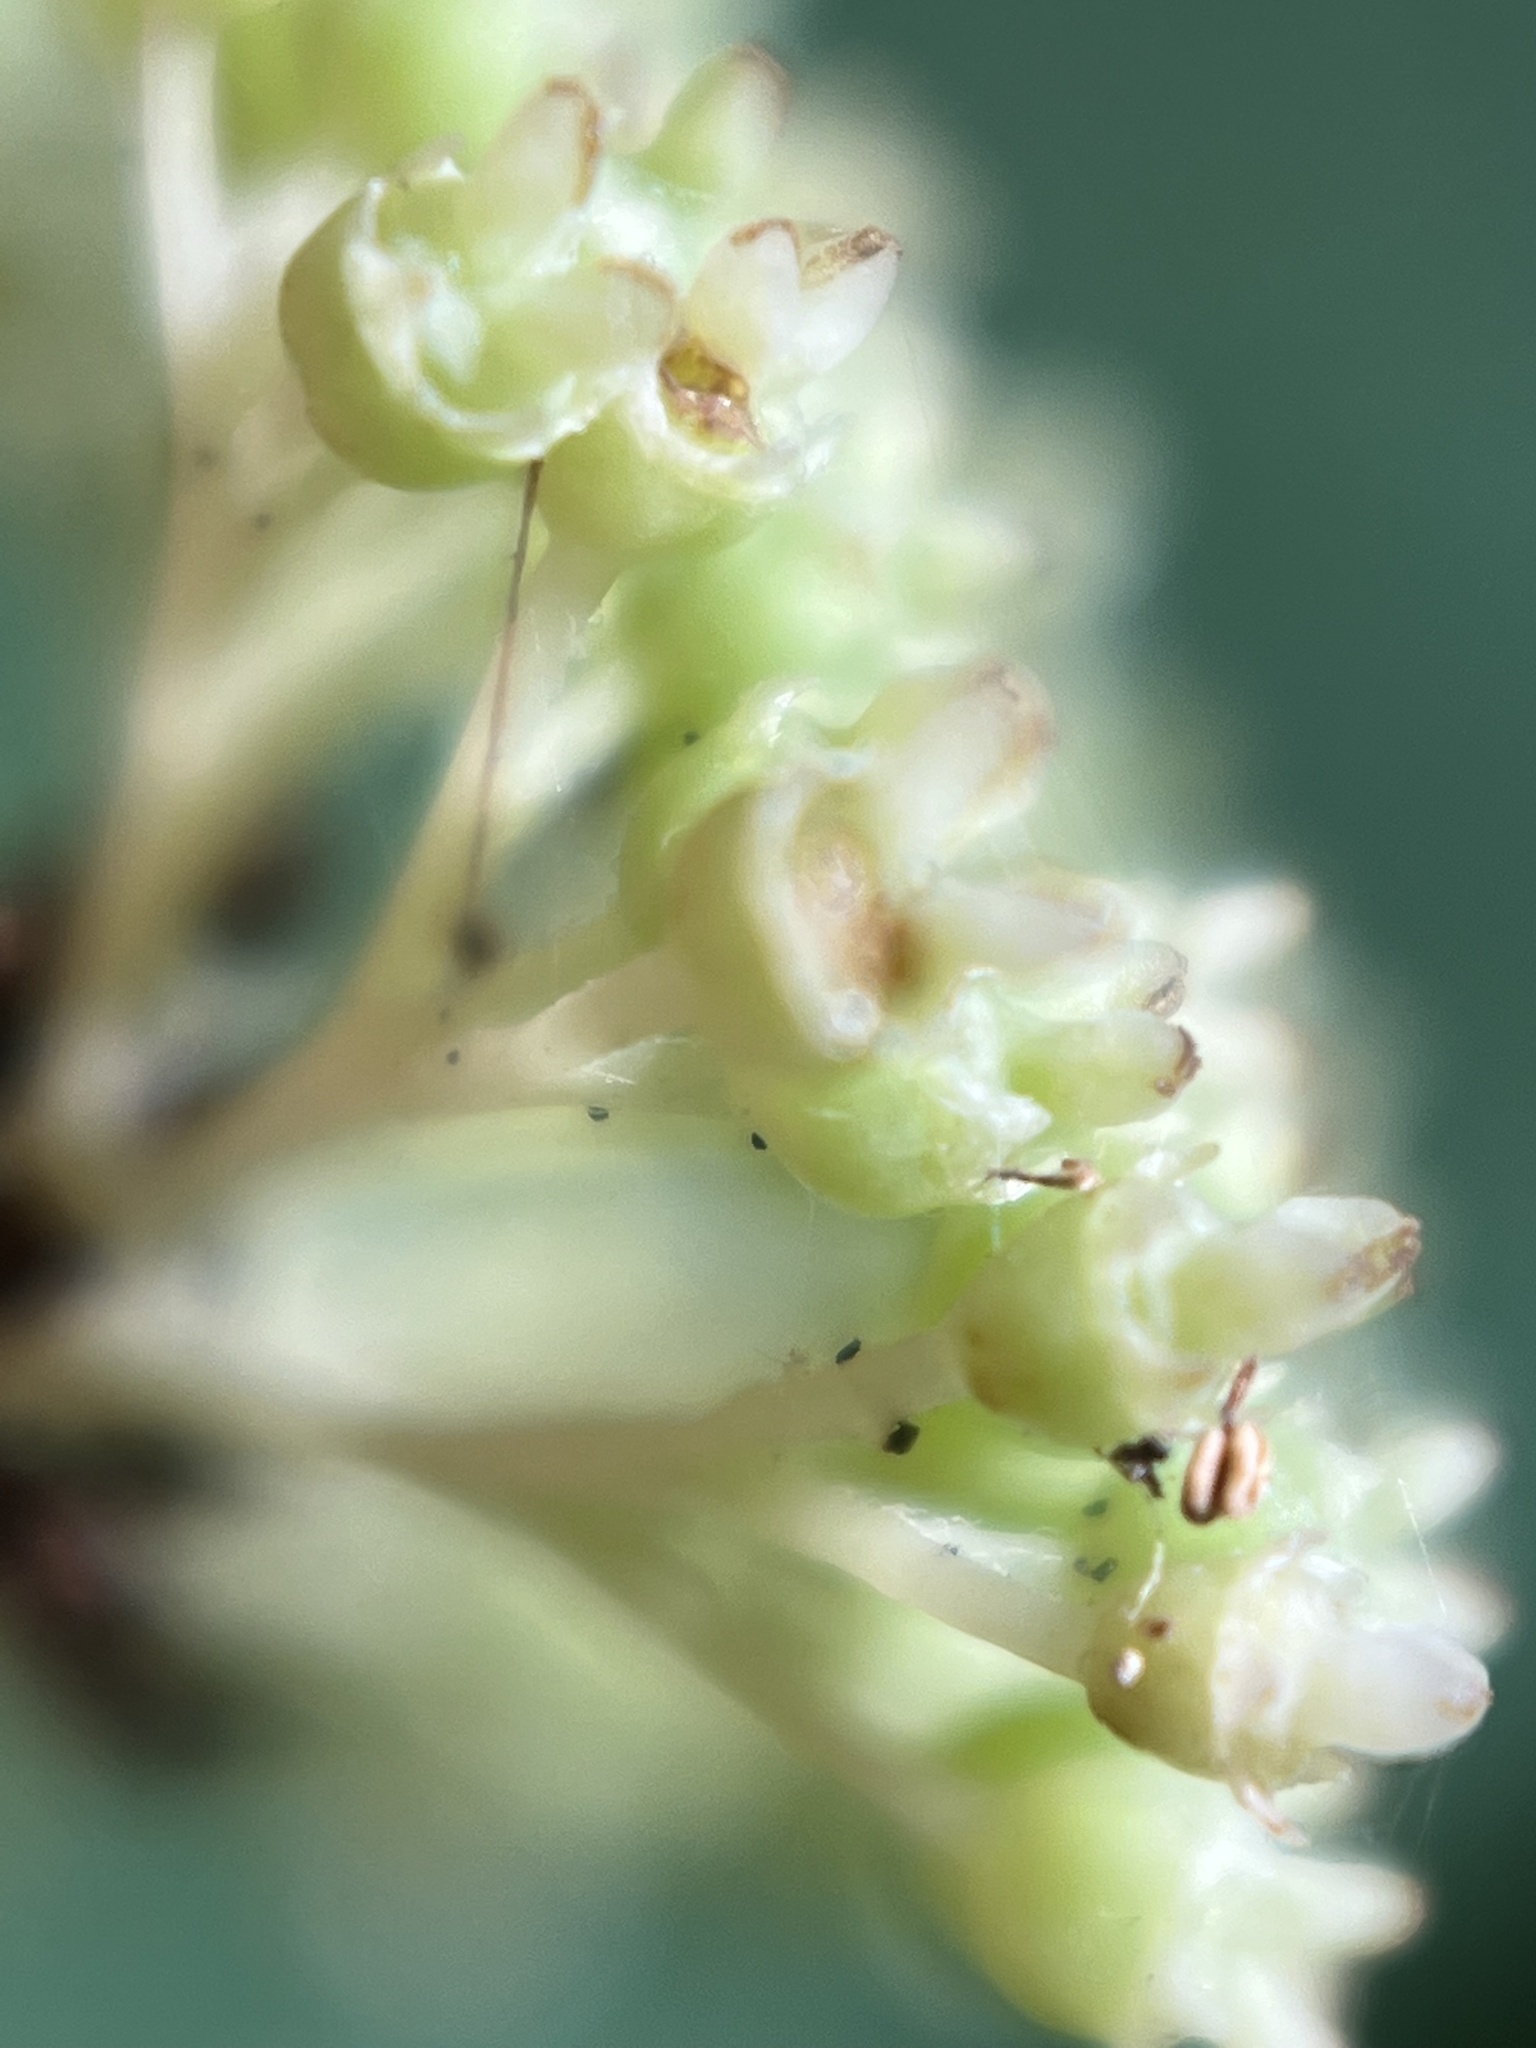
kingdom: Plantae
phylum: Tracheophyta
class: Magnoliopsida
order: Cornales
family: Hydrangeaceae
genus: Hydrangea
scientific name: Hydrangea arborescens
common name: Sevenbark
